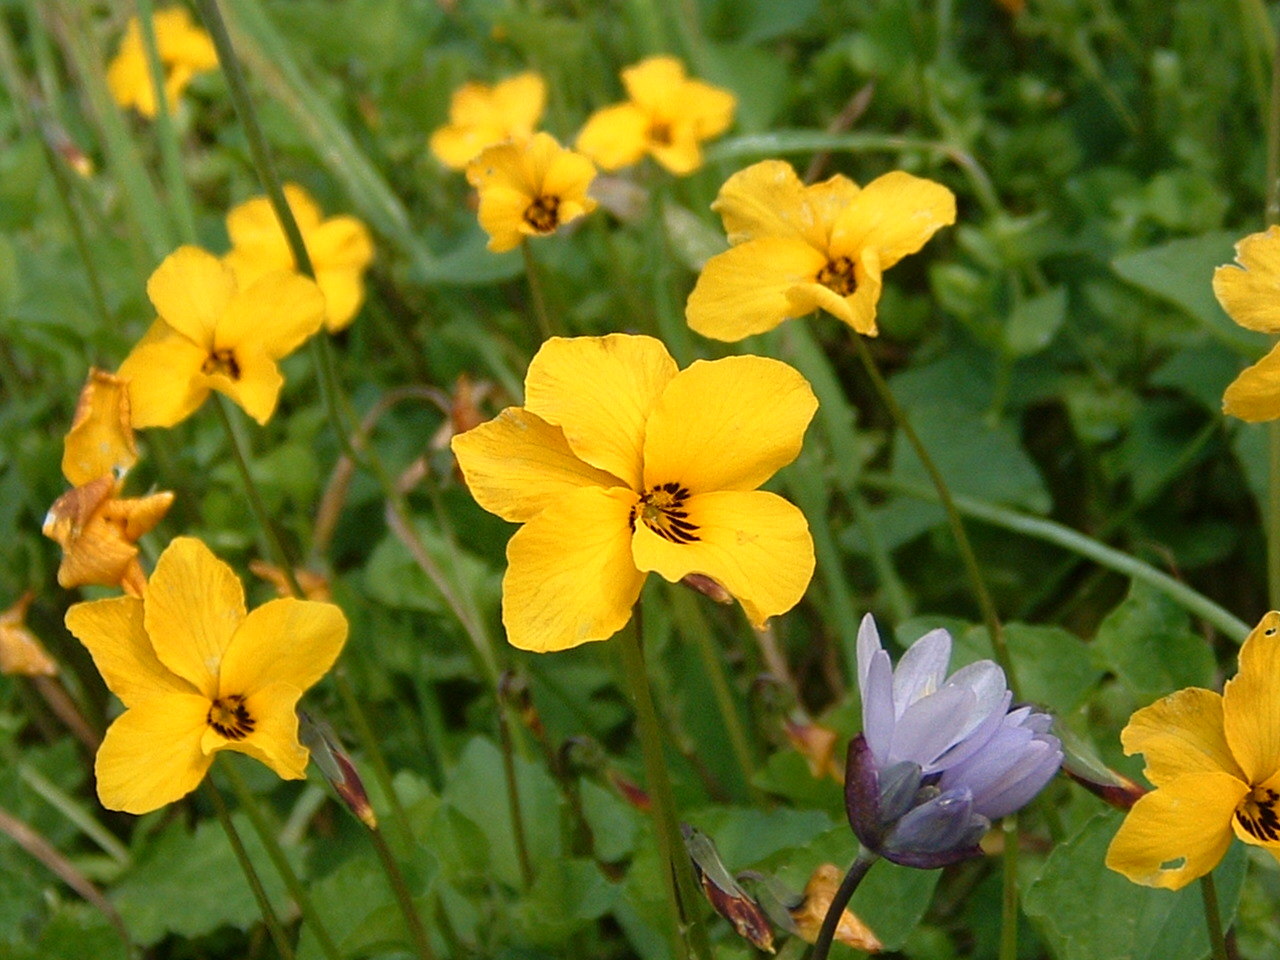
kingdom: Plantae
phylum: Tracheophyta
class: Magnoliopsida
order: Malpighiales
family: Violaceae
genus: Viola
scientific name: Viola pedunculata
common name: California golden violet
